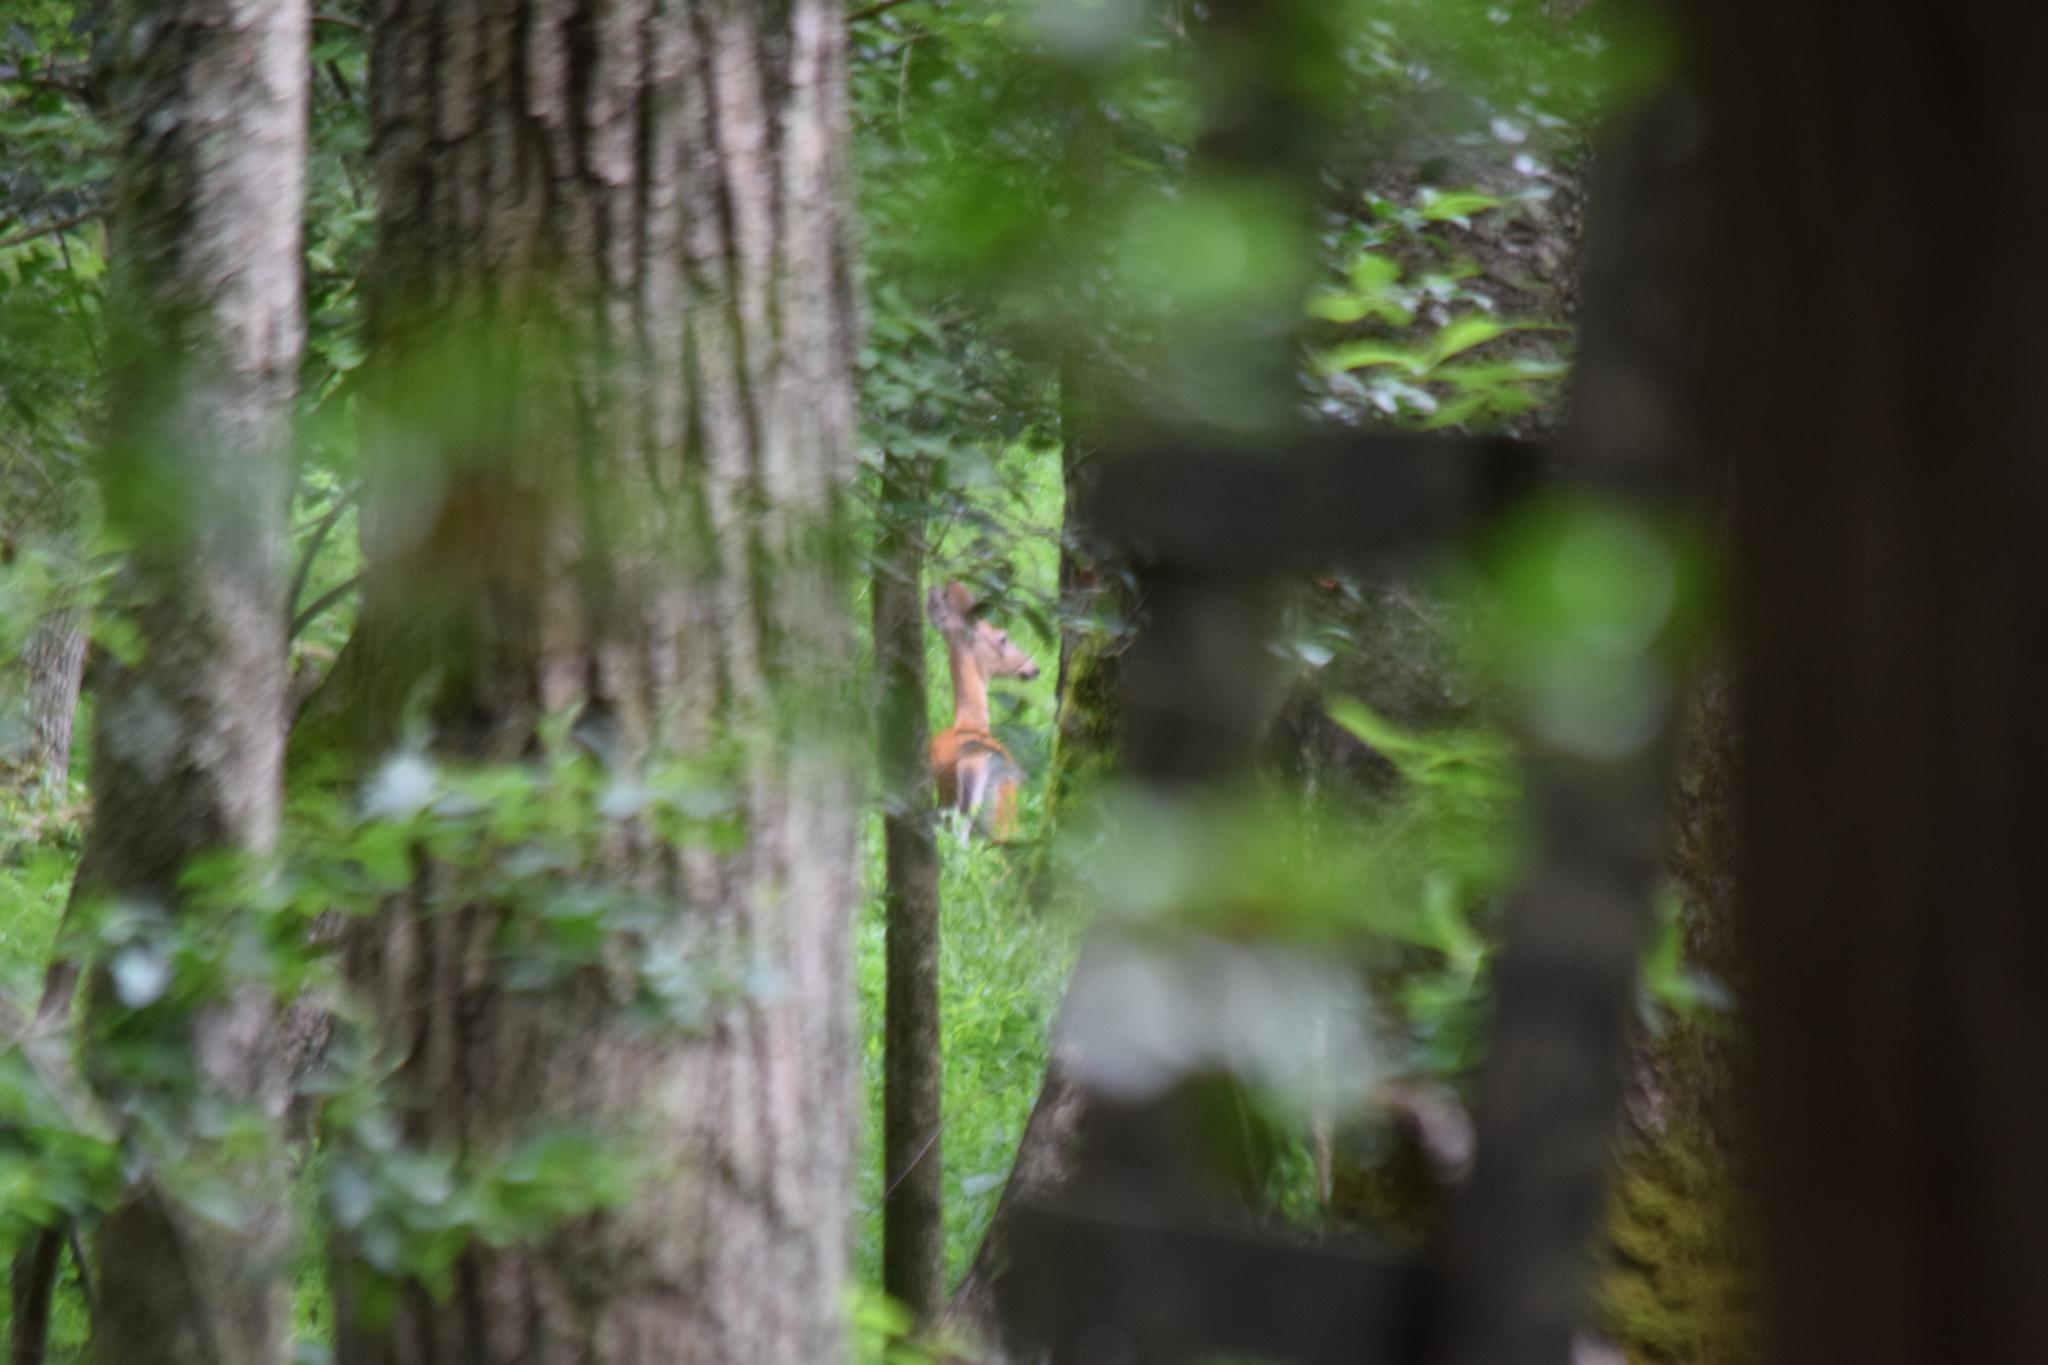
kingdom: Animalia
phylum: Chordata
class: Mammalia
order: Artiodactyla
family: Cervidae
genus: Odocoileus
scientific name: Odocoileus virginianus
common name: White-tailed deer
